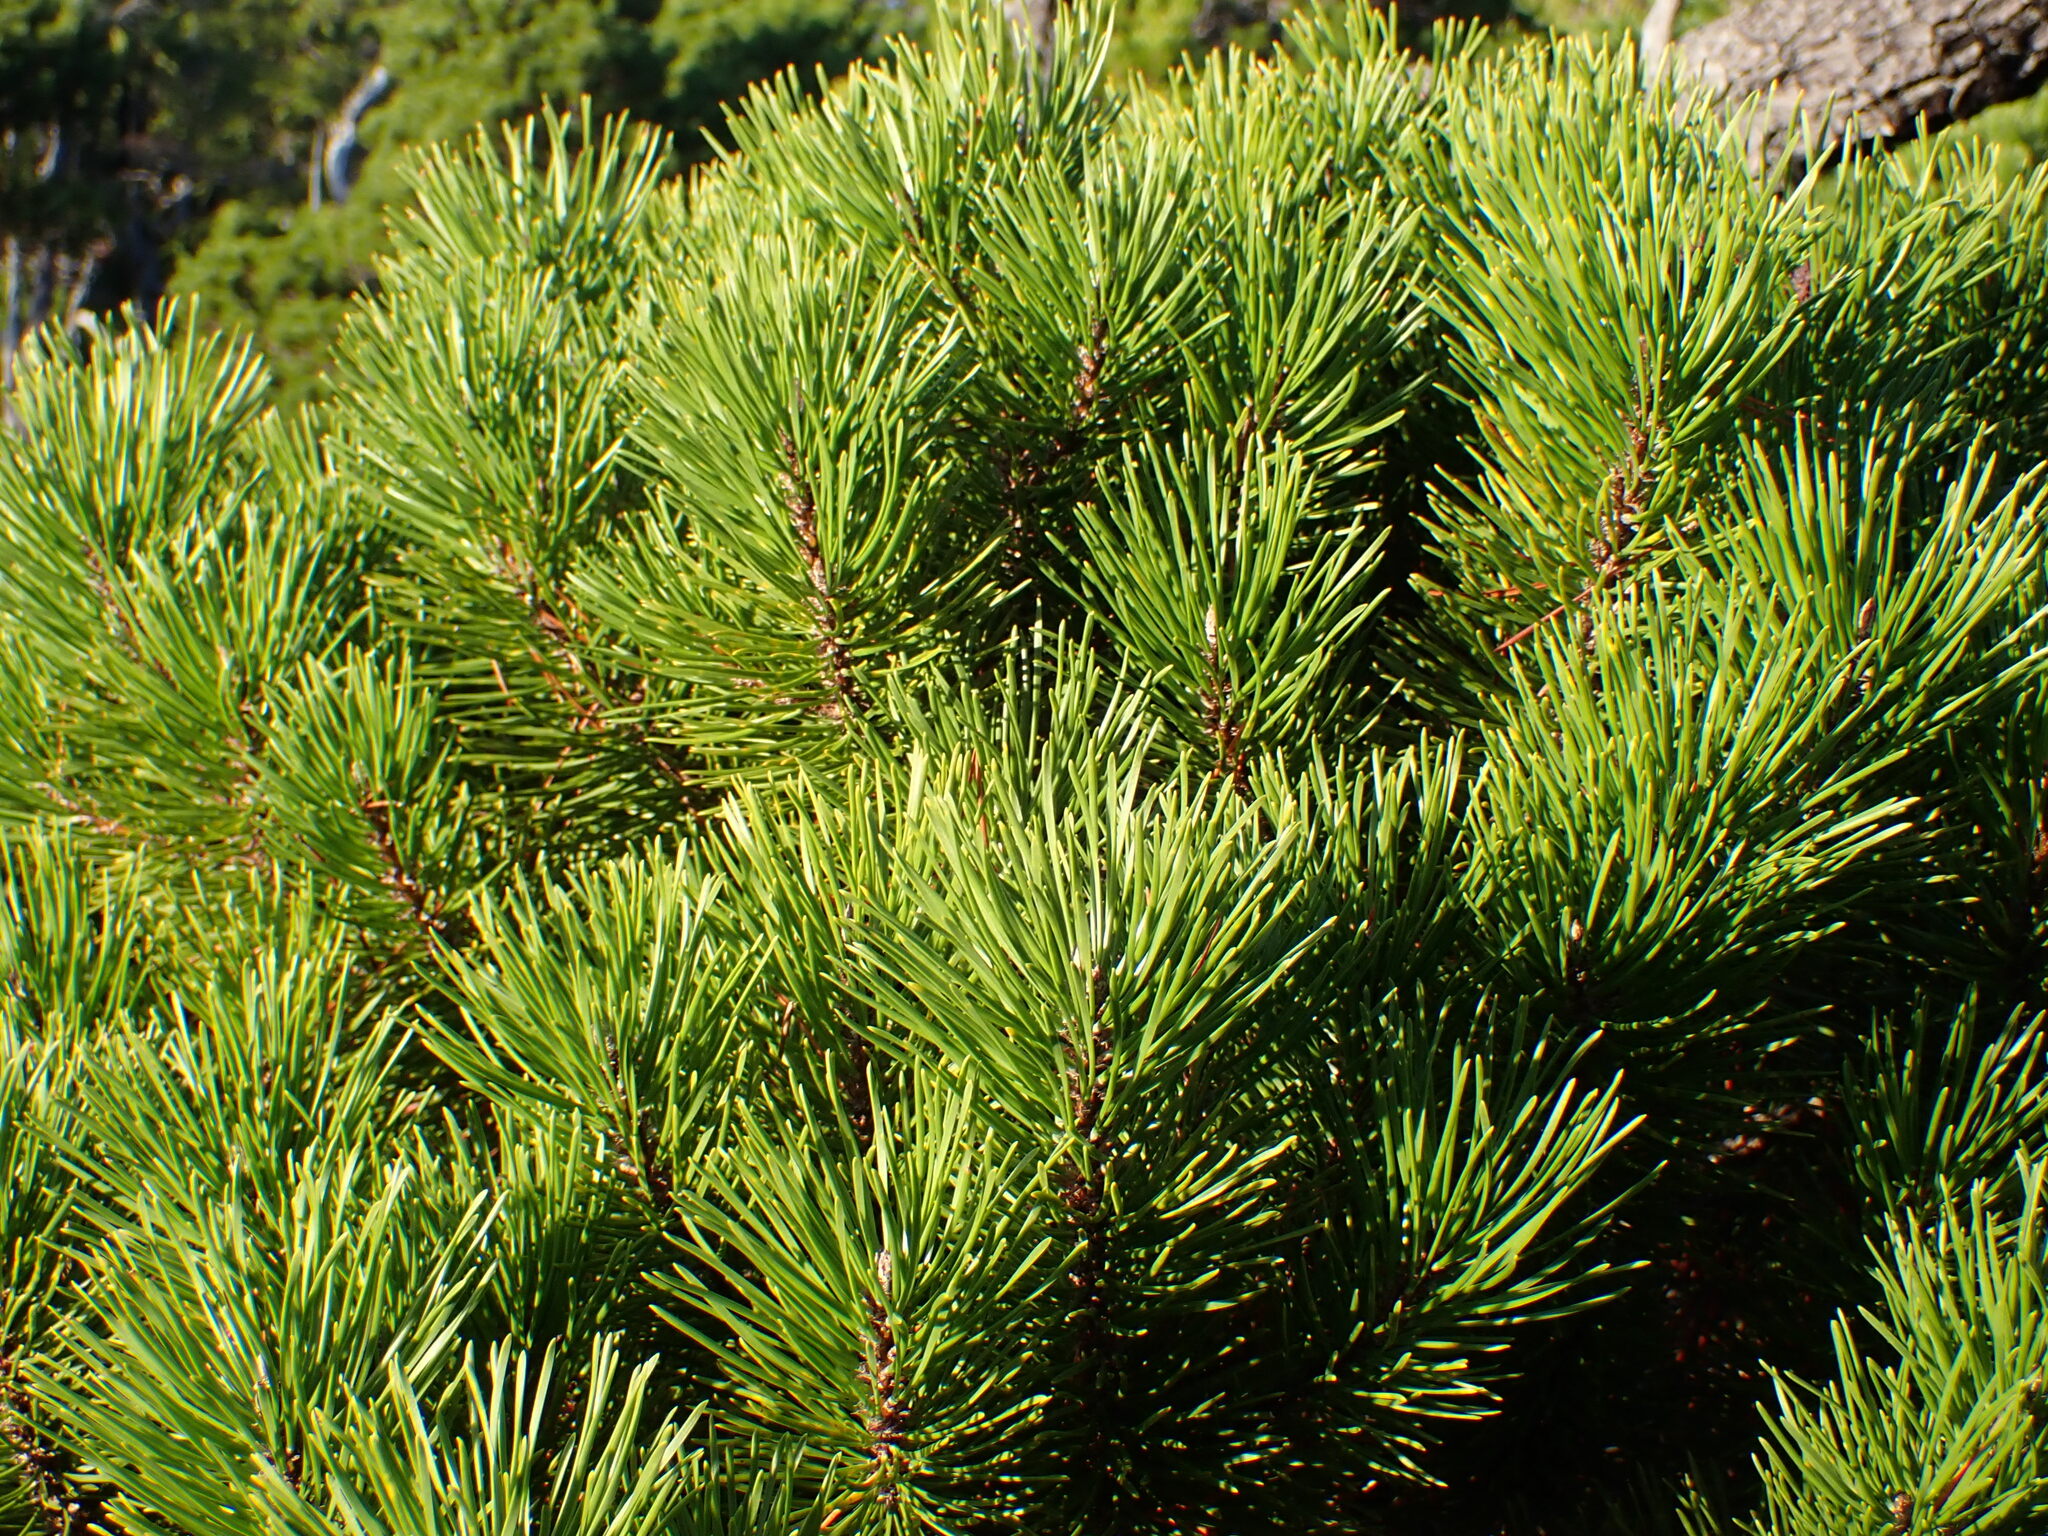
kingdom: Plantae
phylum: Tracheophyta
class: Pinopsida
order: Pinales
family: Pinaceae
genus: Pinus
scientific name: Pinus contorta
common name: Lodgepole pine
